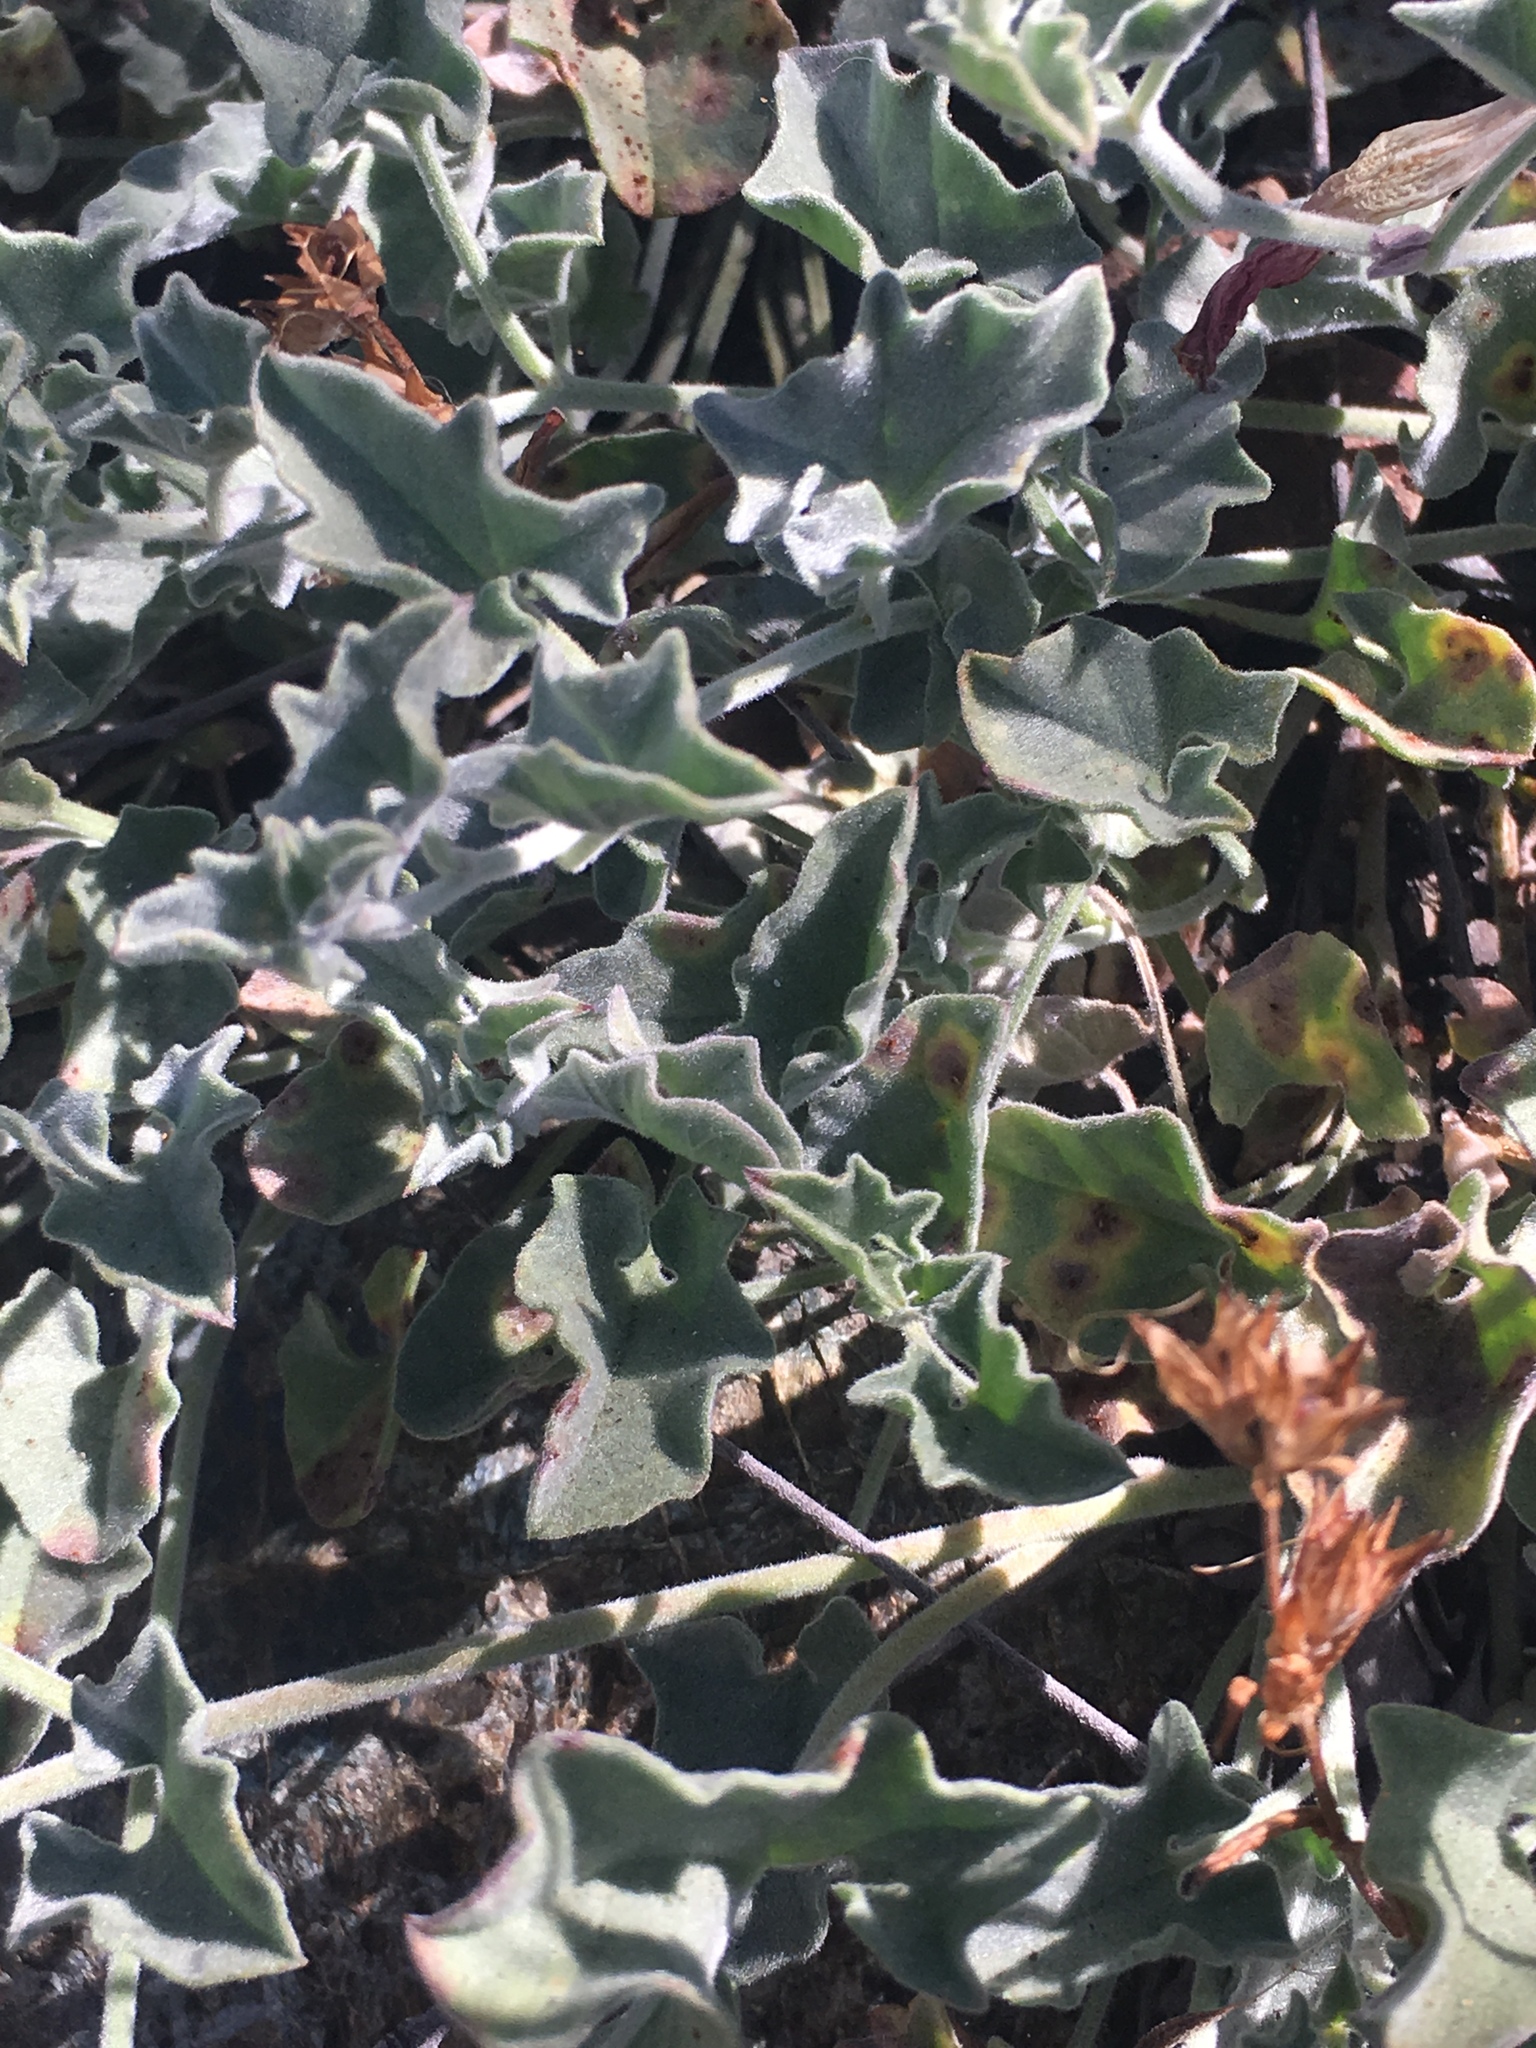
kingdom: Plantae
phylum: Tracheophyta
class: Magnoliopsida
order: Solanales
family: Convolvulaceae
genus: Calystegia
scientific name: Calystegia collina
